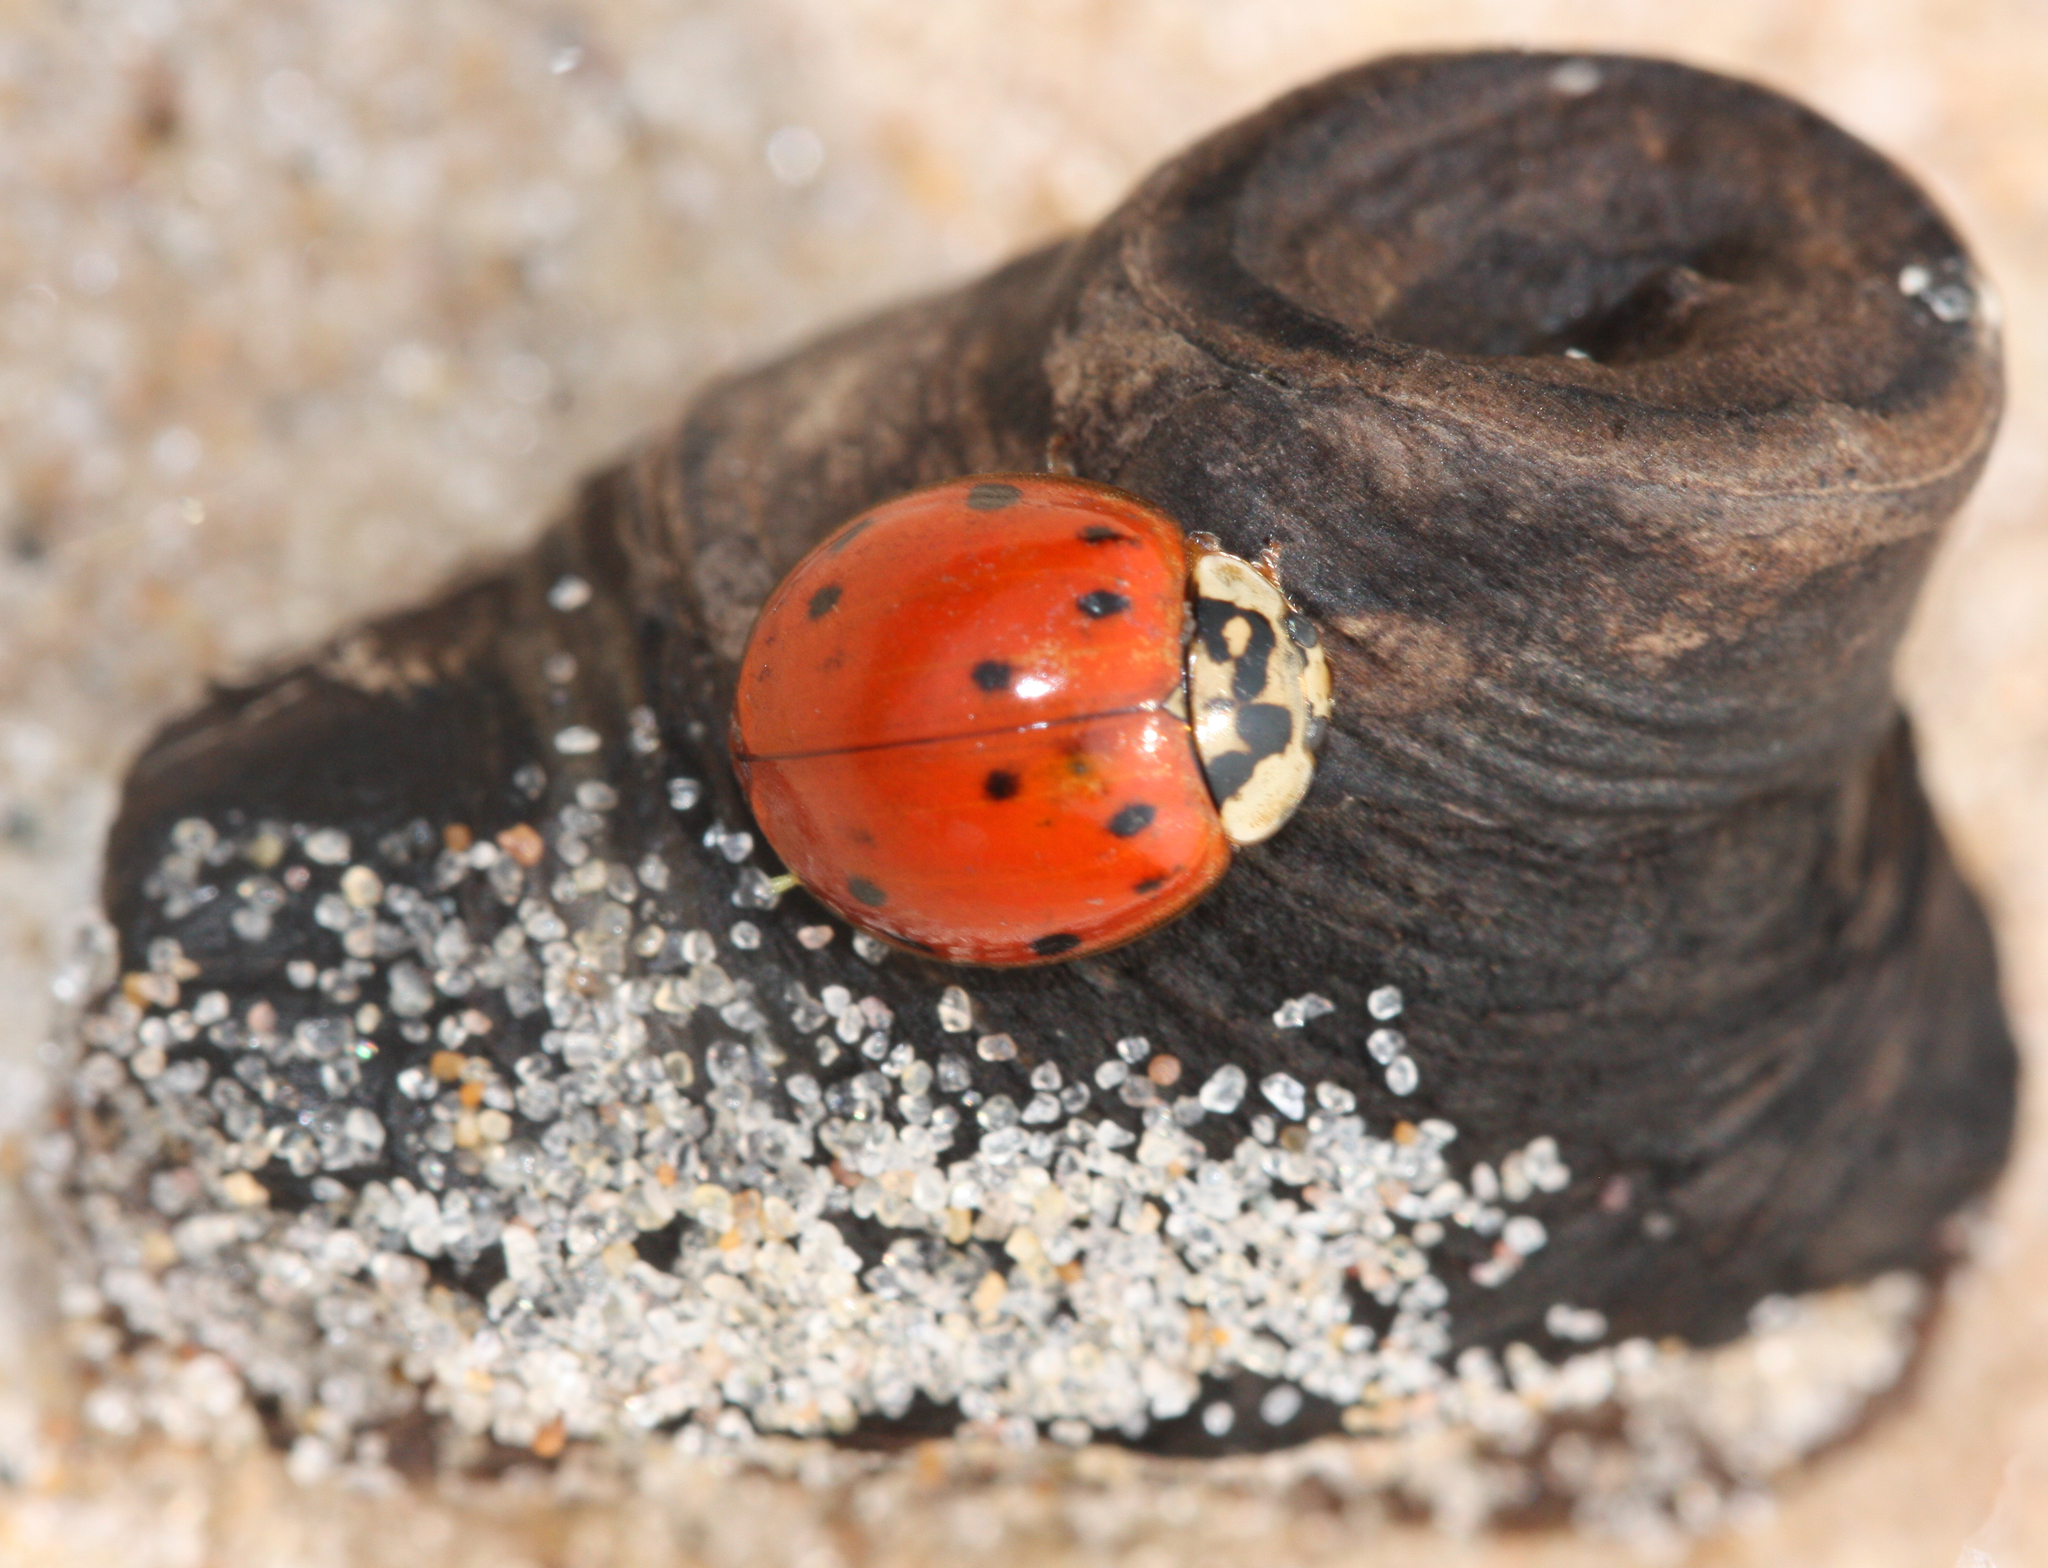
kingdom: Animalia
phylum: Arthropoda
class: Insecta
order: Coleoptera
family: Coccinellidae
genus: Harmonia
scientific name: Harmonia axyridis
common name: Harlequin ladybird
